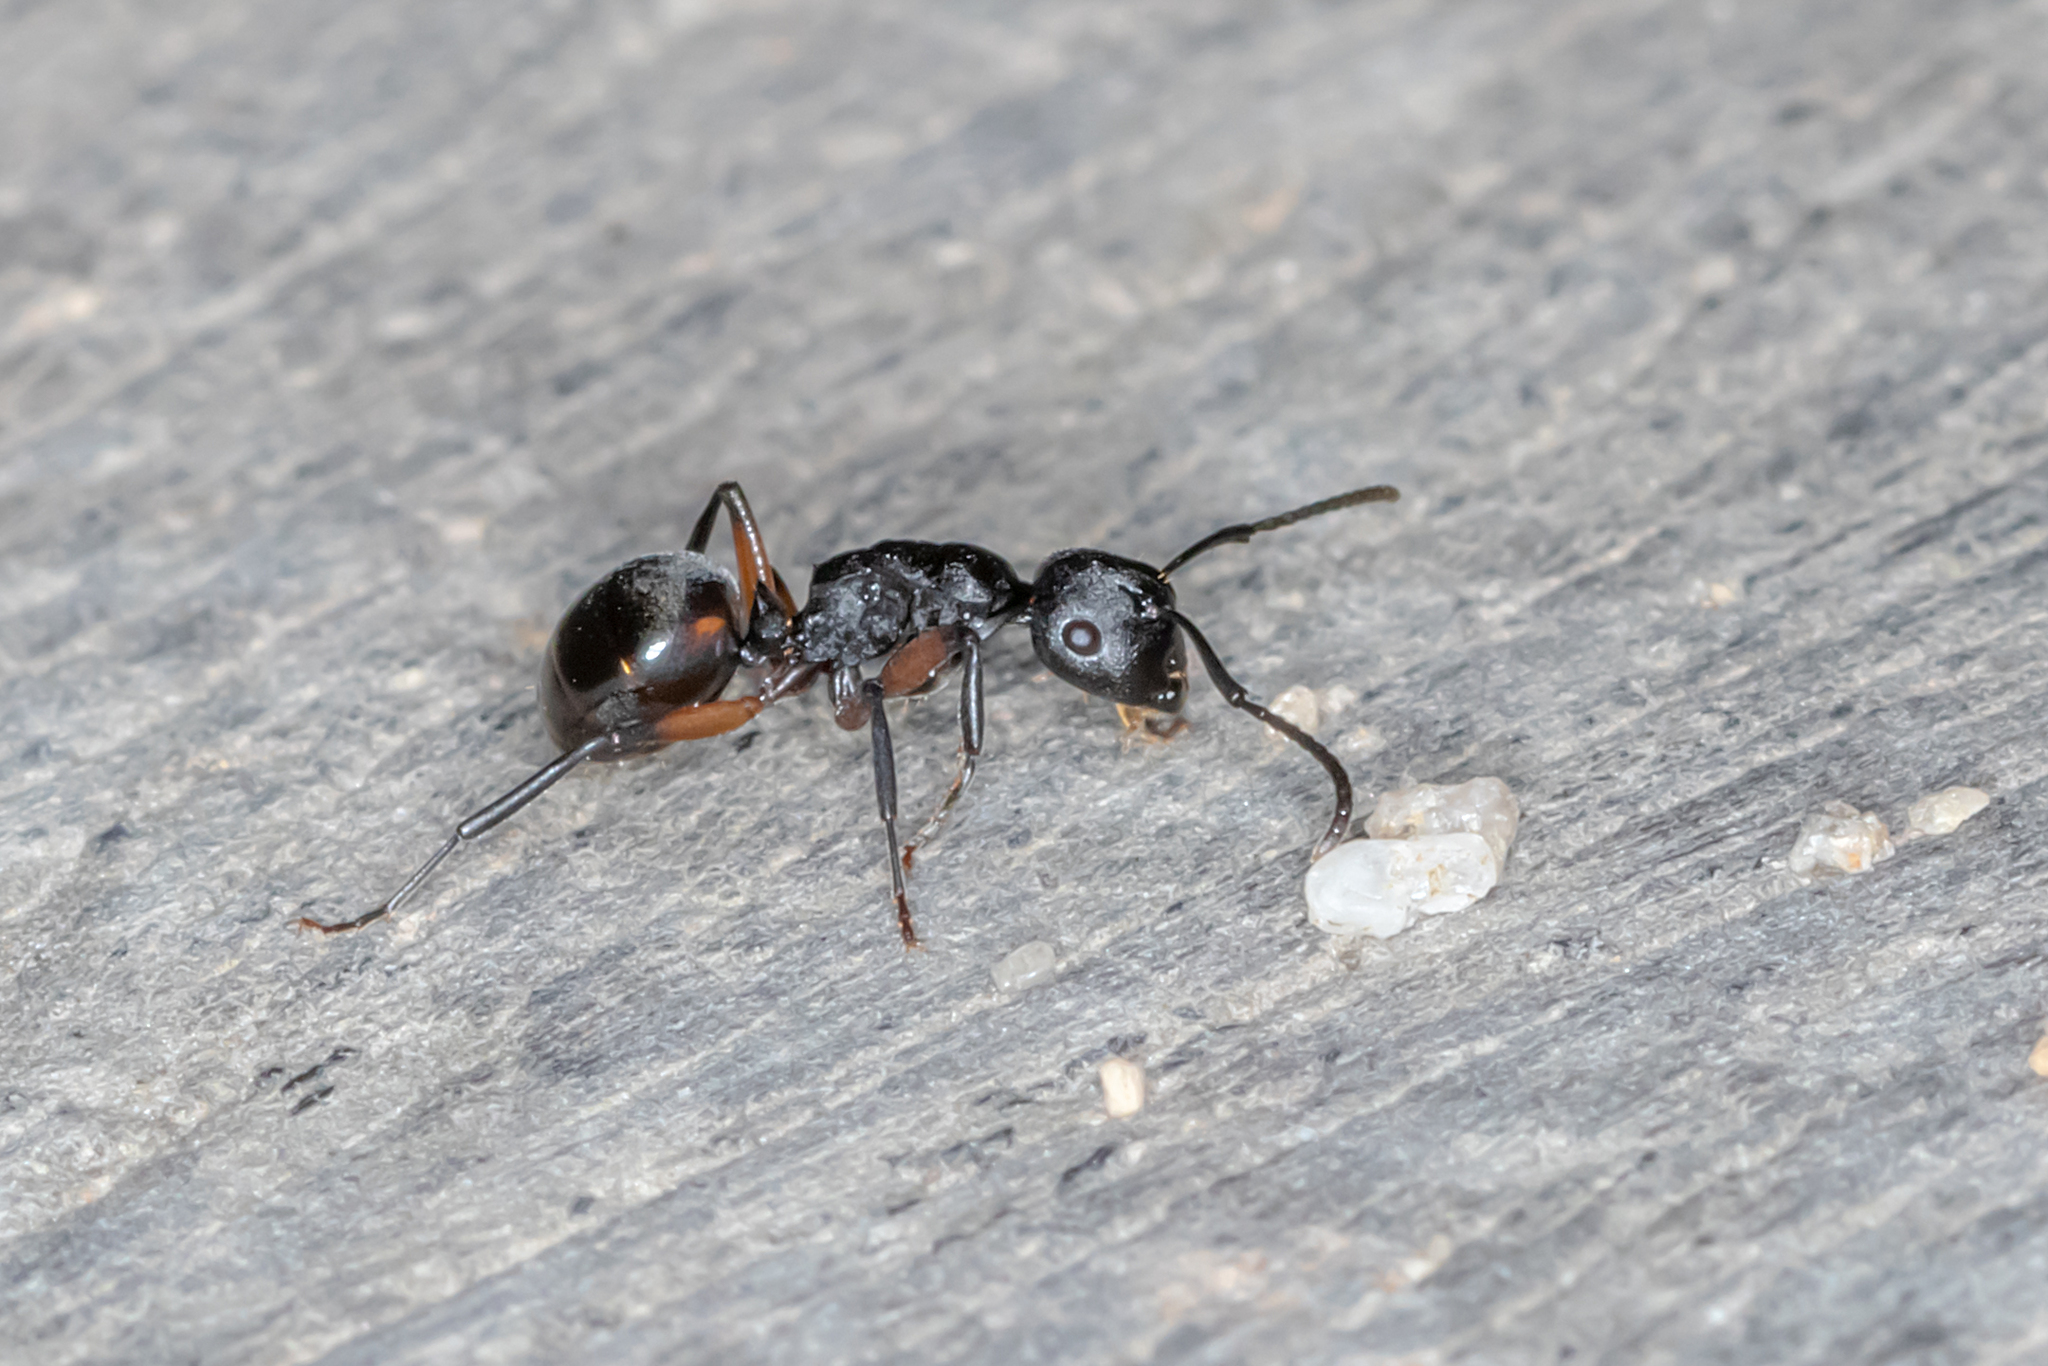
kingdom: Animalia
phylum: Arthropoda
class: Insecta
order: Hymenoptera
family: Formicidae
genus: Polyrhachis
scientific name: Polyrhachis femorata
